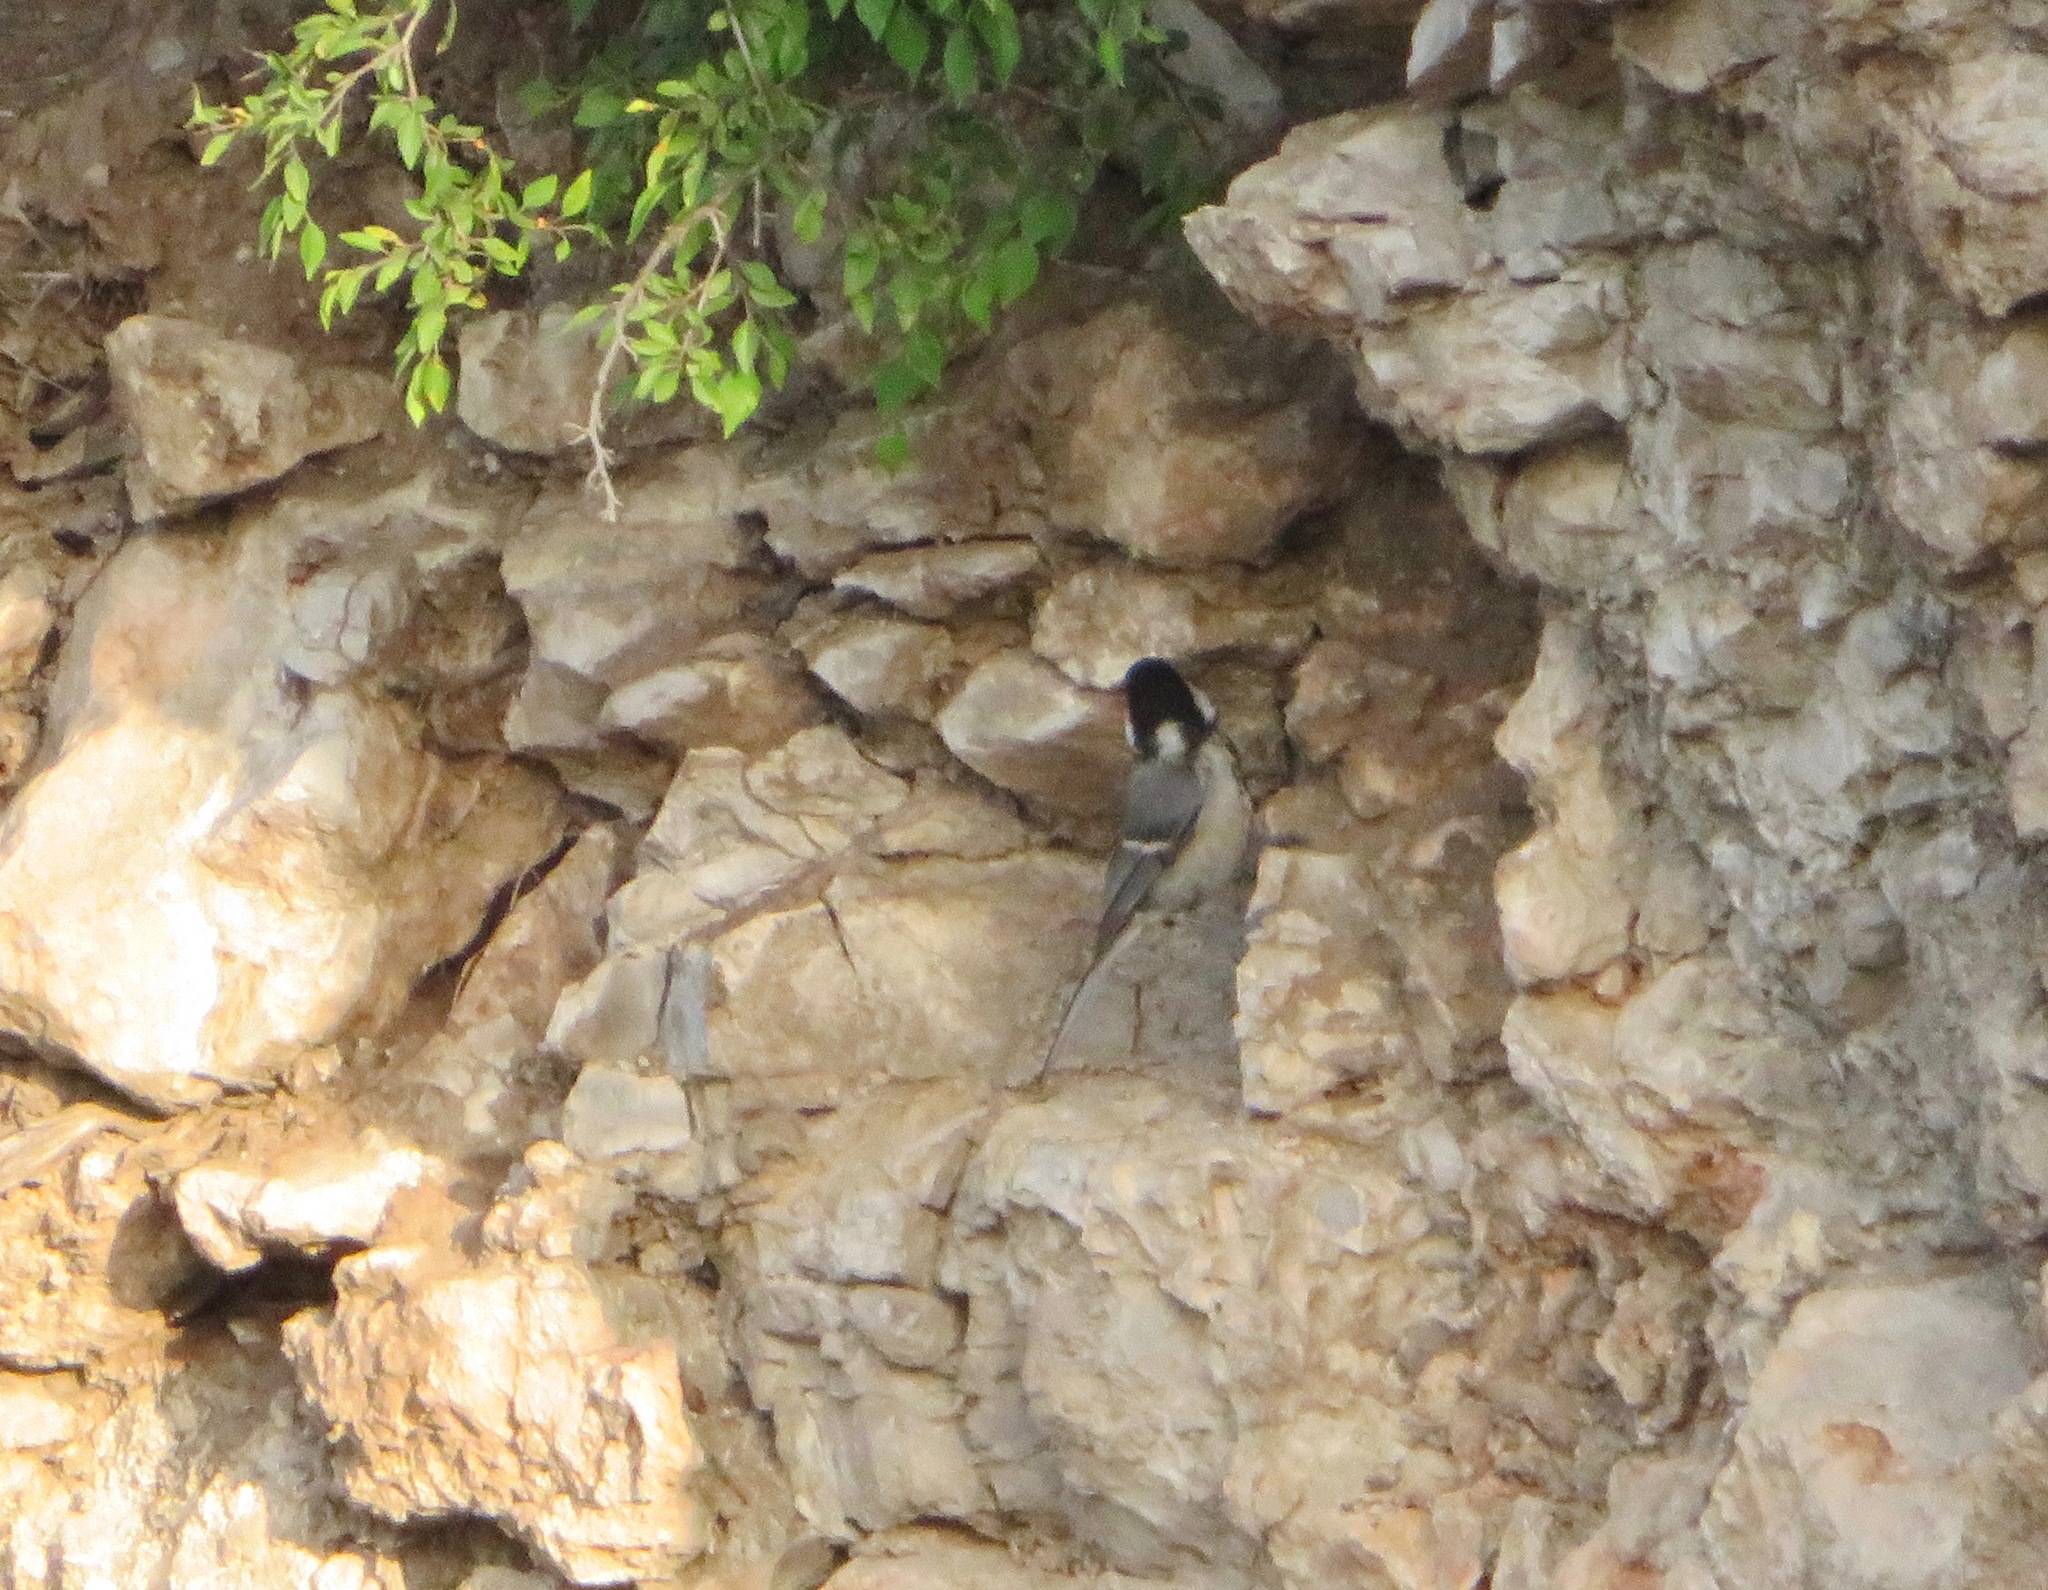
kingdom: Animalia
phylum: Chordata
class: Aves
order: Passeriformes
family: Paridae
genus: Parus
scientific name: Parus minor
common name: Japanese tit
